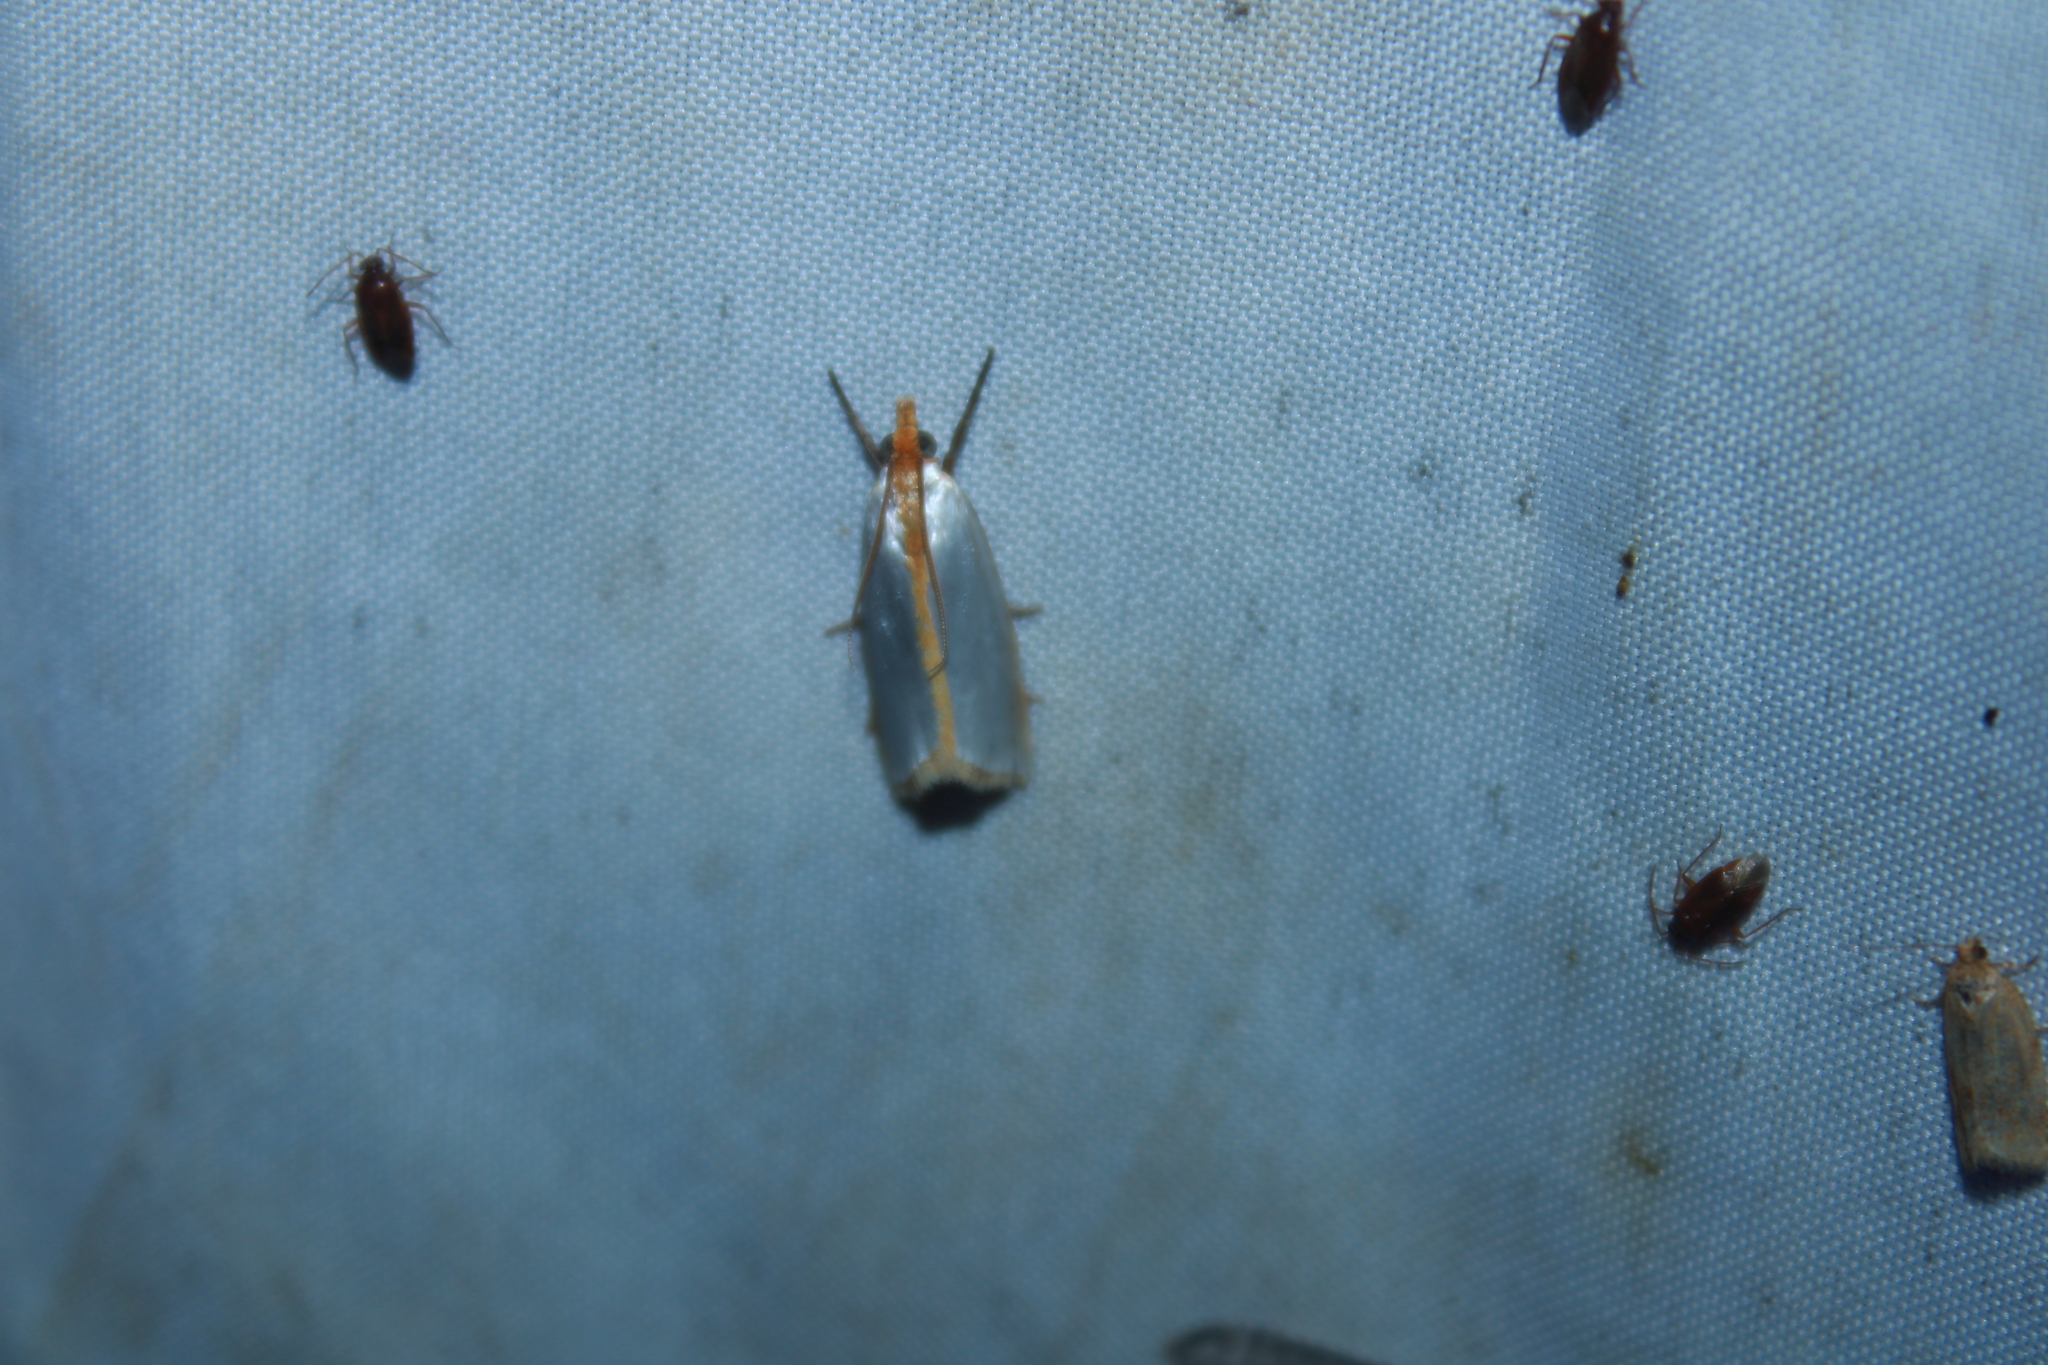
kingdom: Animalia
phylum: Arthropoda
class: Insecta
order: Lepidoptera
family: Crambidae
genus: Argyria
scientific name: Argyria
